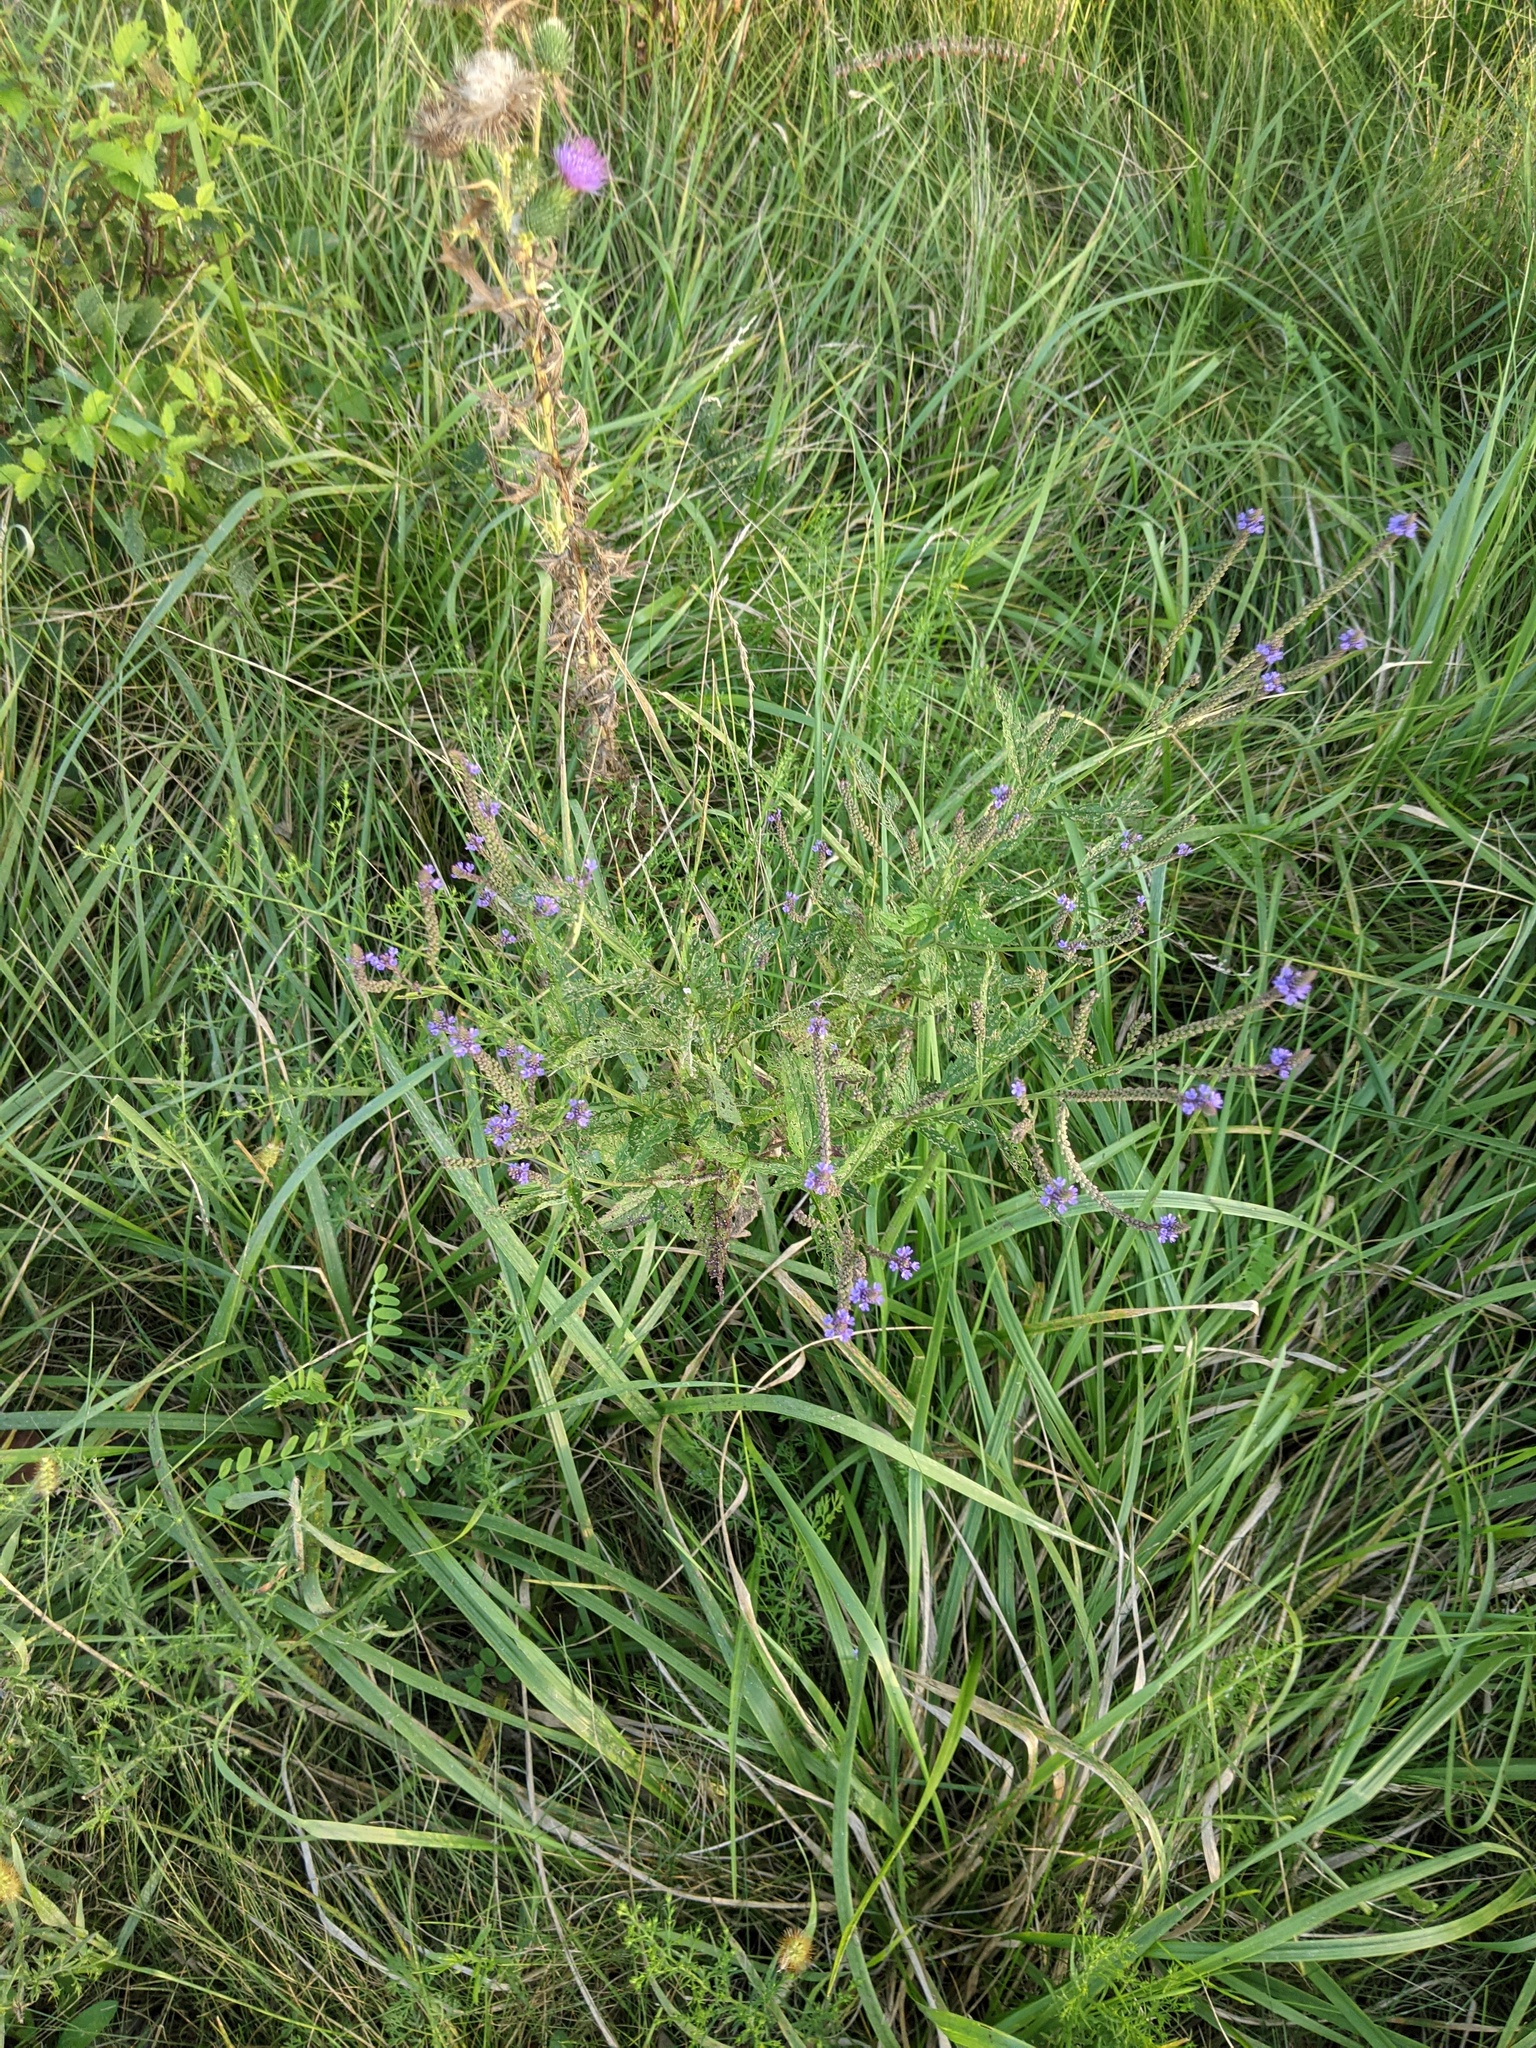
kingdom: Plantae
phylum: Tracheophyta
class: Magnoliopsida
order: Lamiales
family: Verbenaceae
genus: Verbena
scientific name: Verbena hastata
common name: American blue vervain
